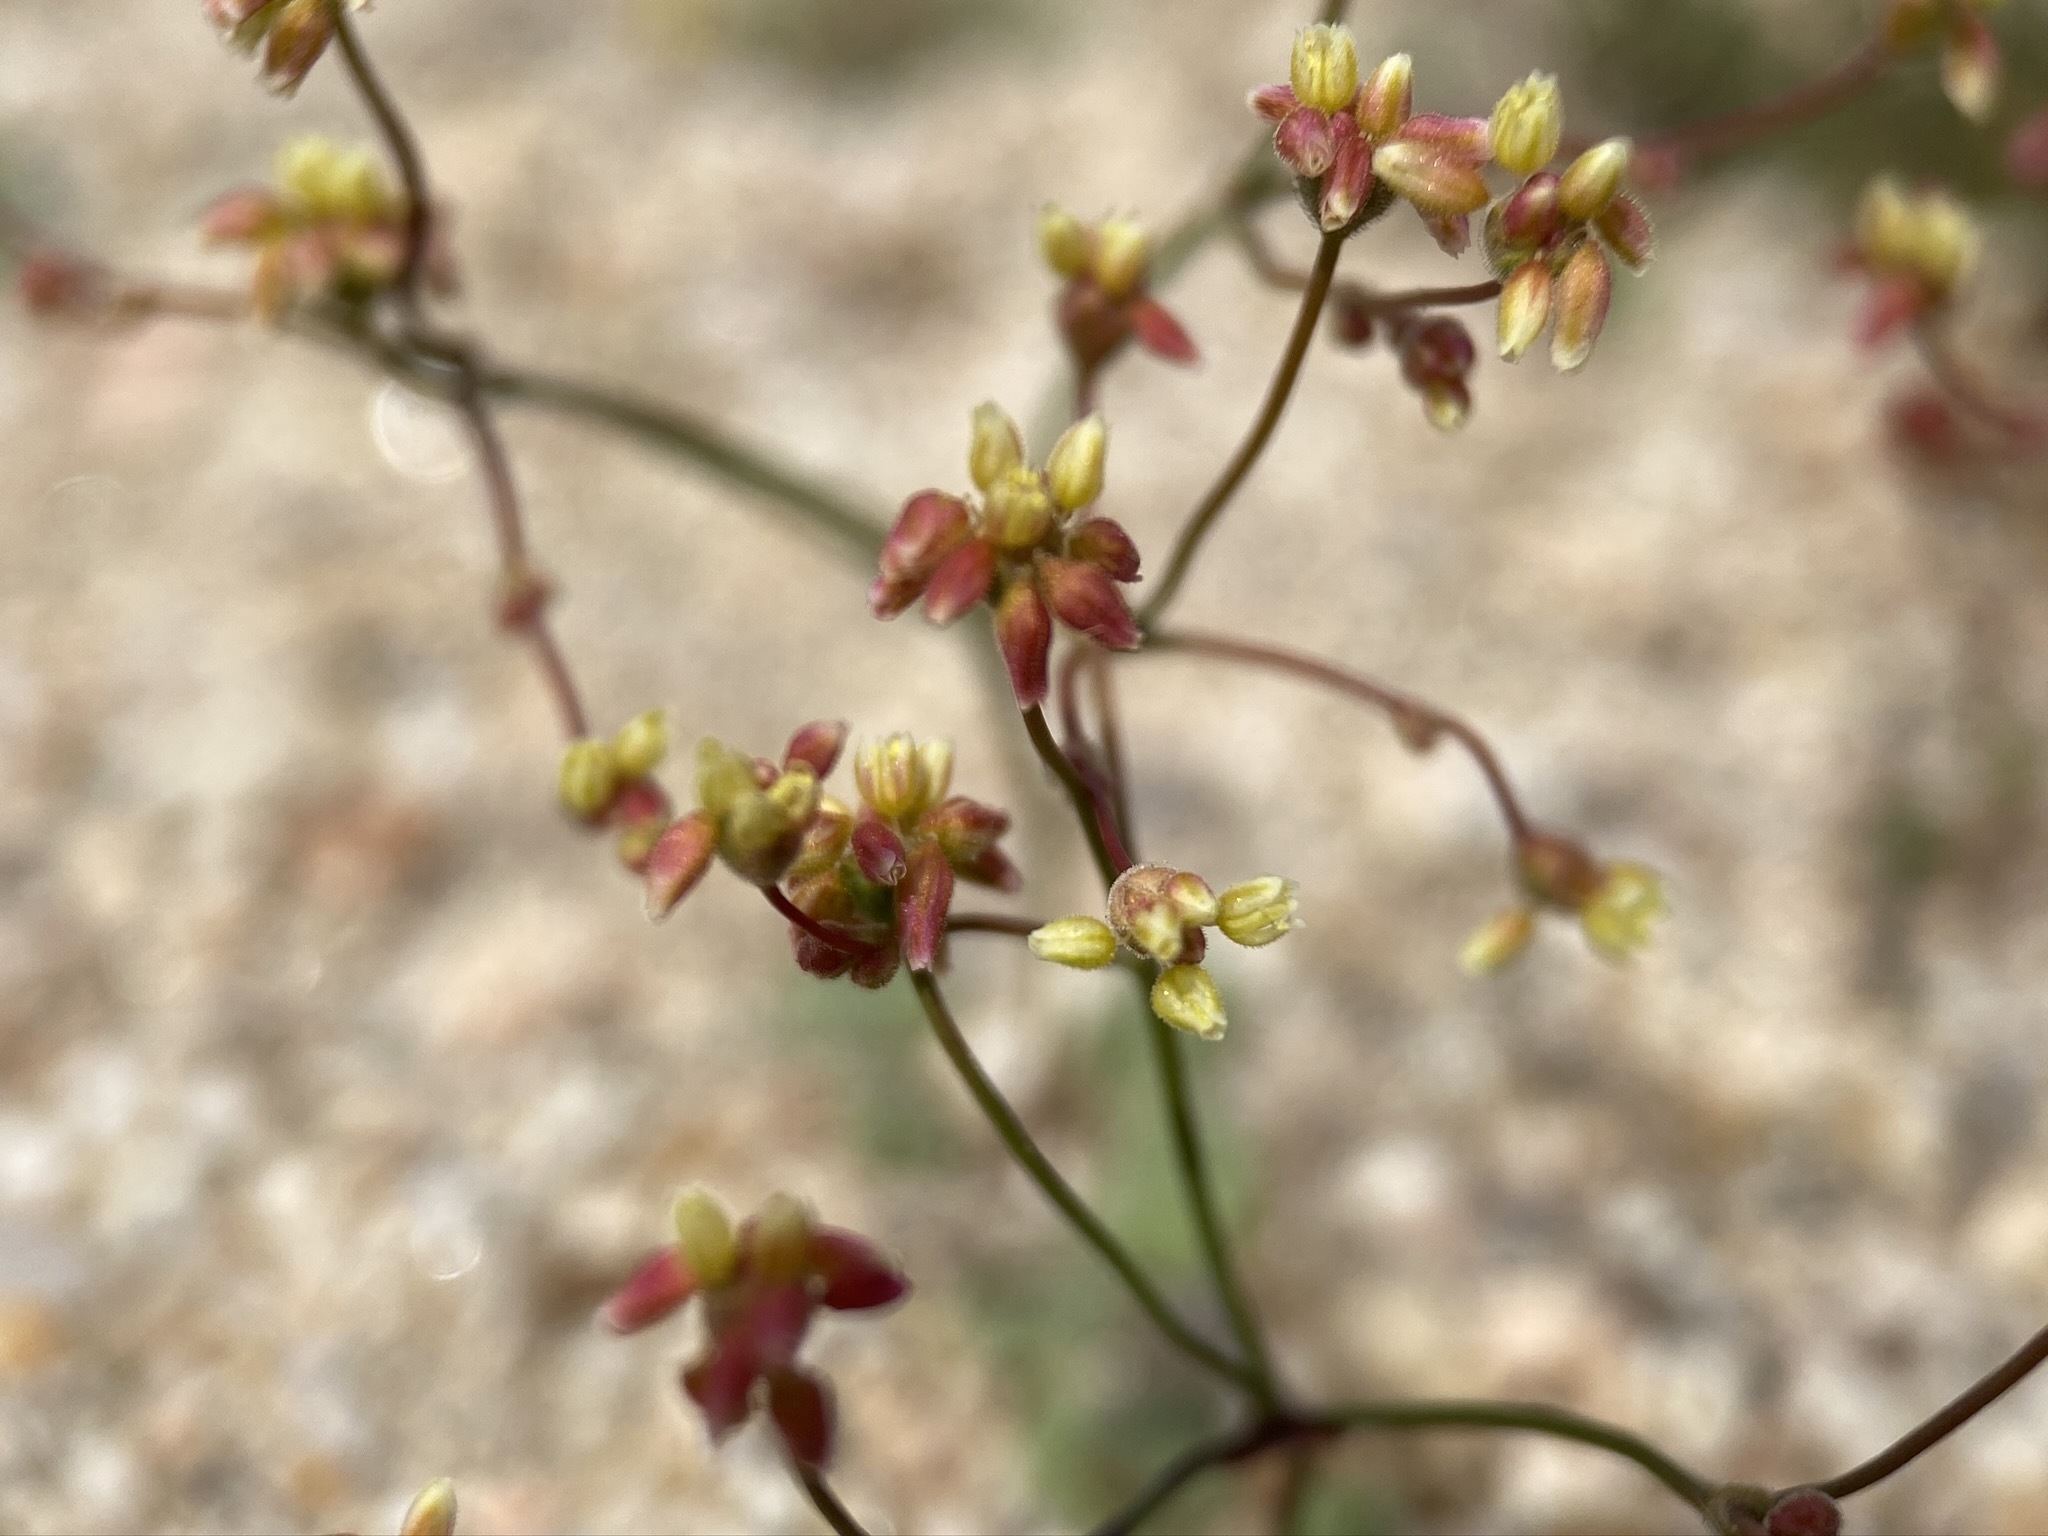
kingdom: Plantae
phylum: Tracheophyta
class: Magnoliopsida
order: Caryophyllales
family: Polygonaceae
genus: Eriogonum
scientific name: Eriogonum pusillum
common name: Yellow turbans
